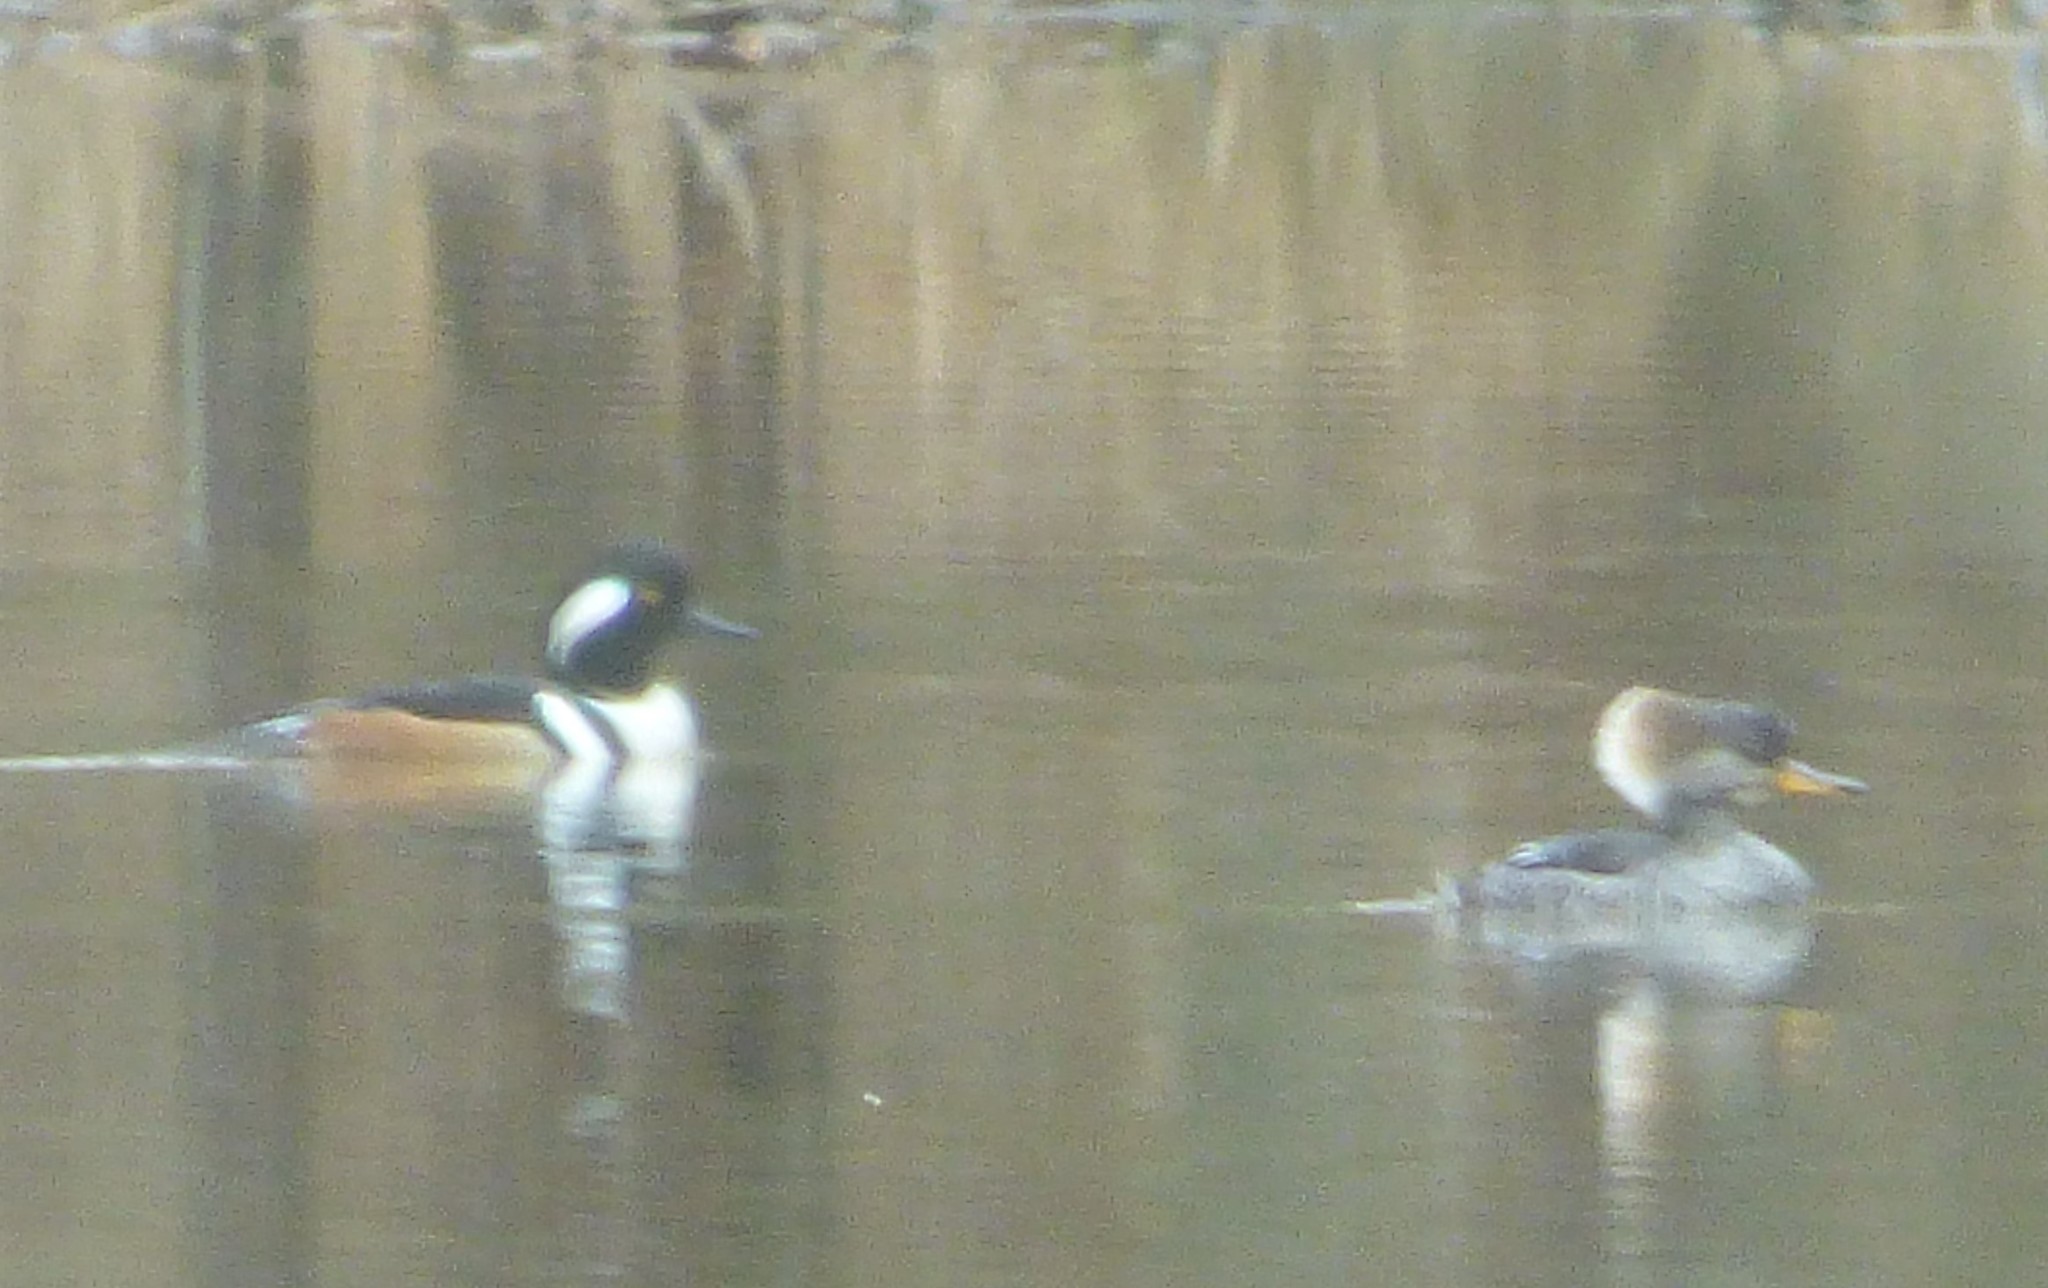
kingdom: Animalia
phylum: Chordata
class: Aves
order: Anseriformes
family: Anatidae
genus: Lophodytes
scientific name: Lophodytes cucullatus
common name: Hooded merganser
